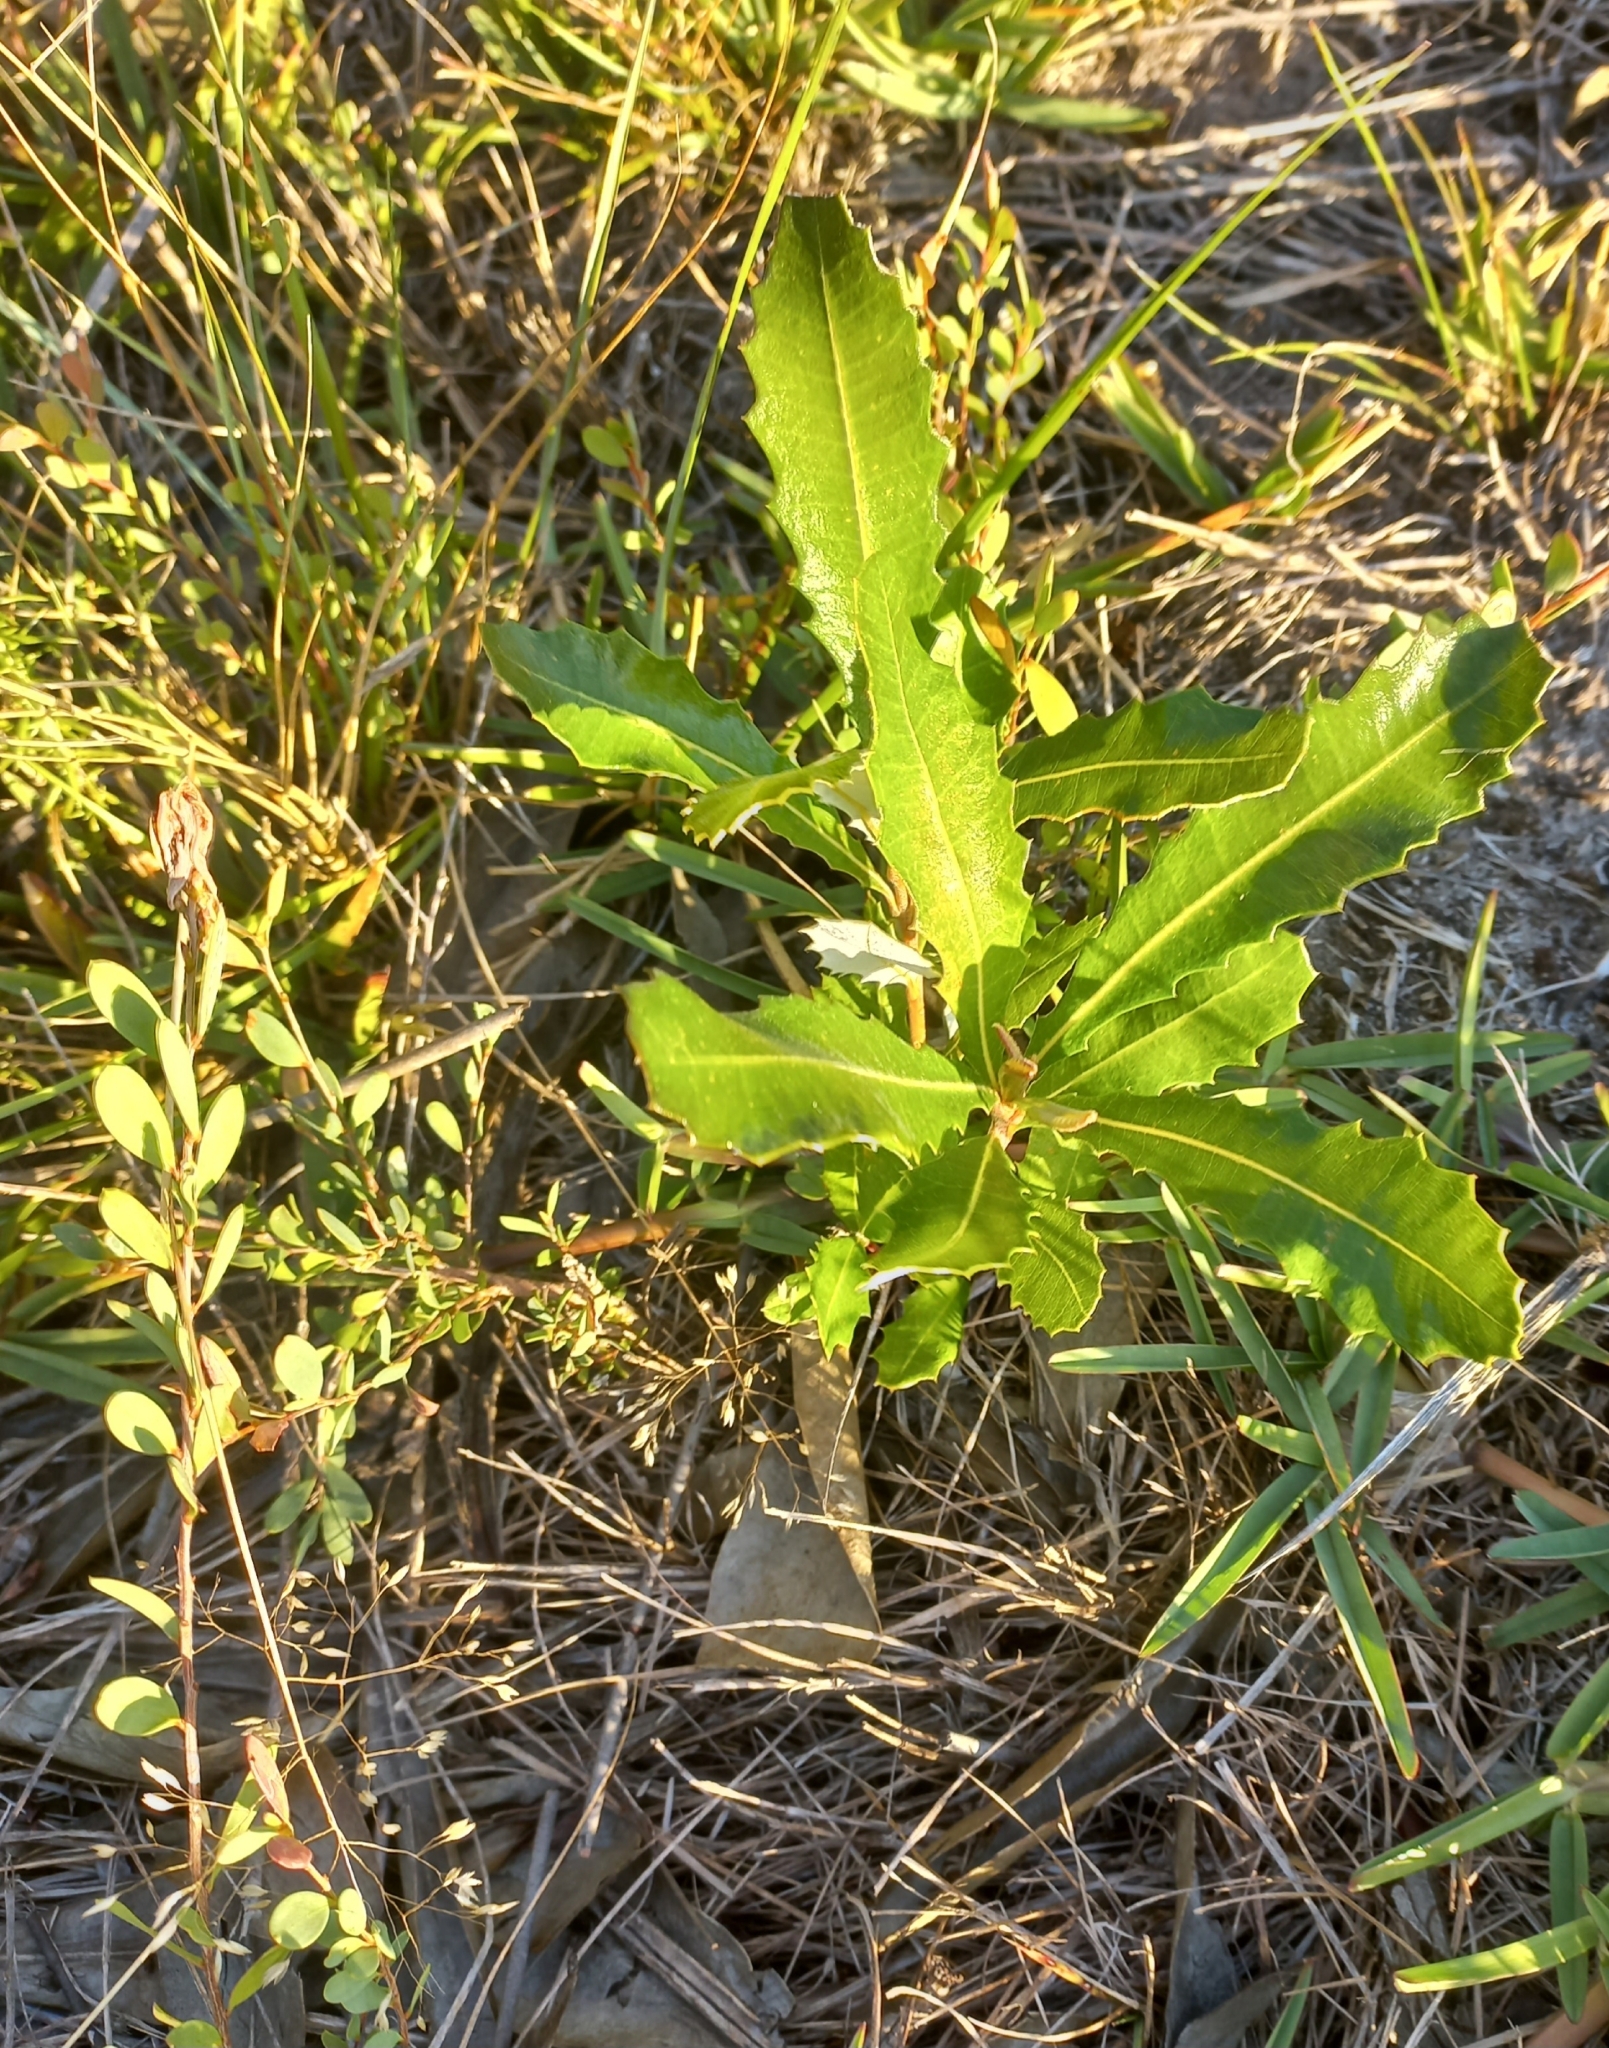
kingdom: Plantae
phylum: Tracheophyta
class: Magnoliopsida
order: Proteales
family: Proteaceae
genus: Banksia
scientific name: Banksia integrifolia
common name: White-honeysuckle
